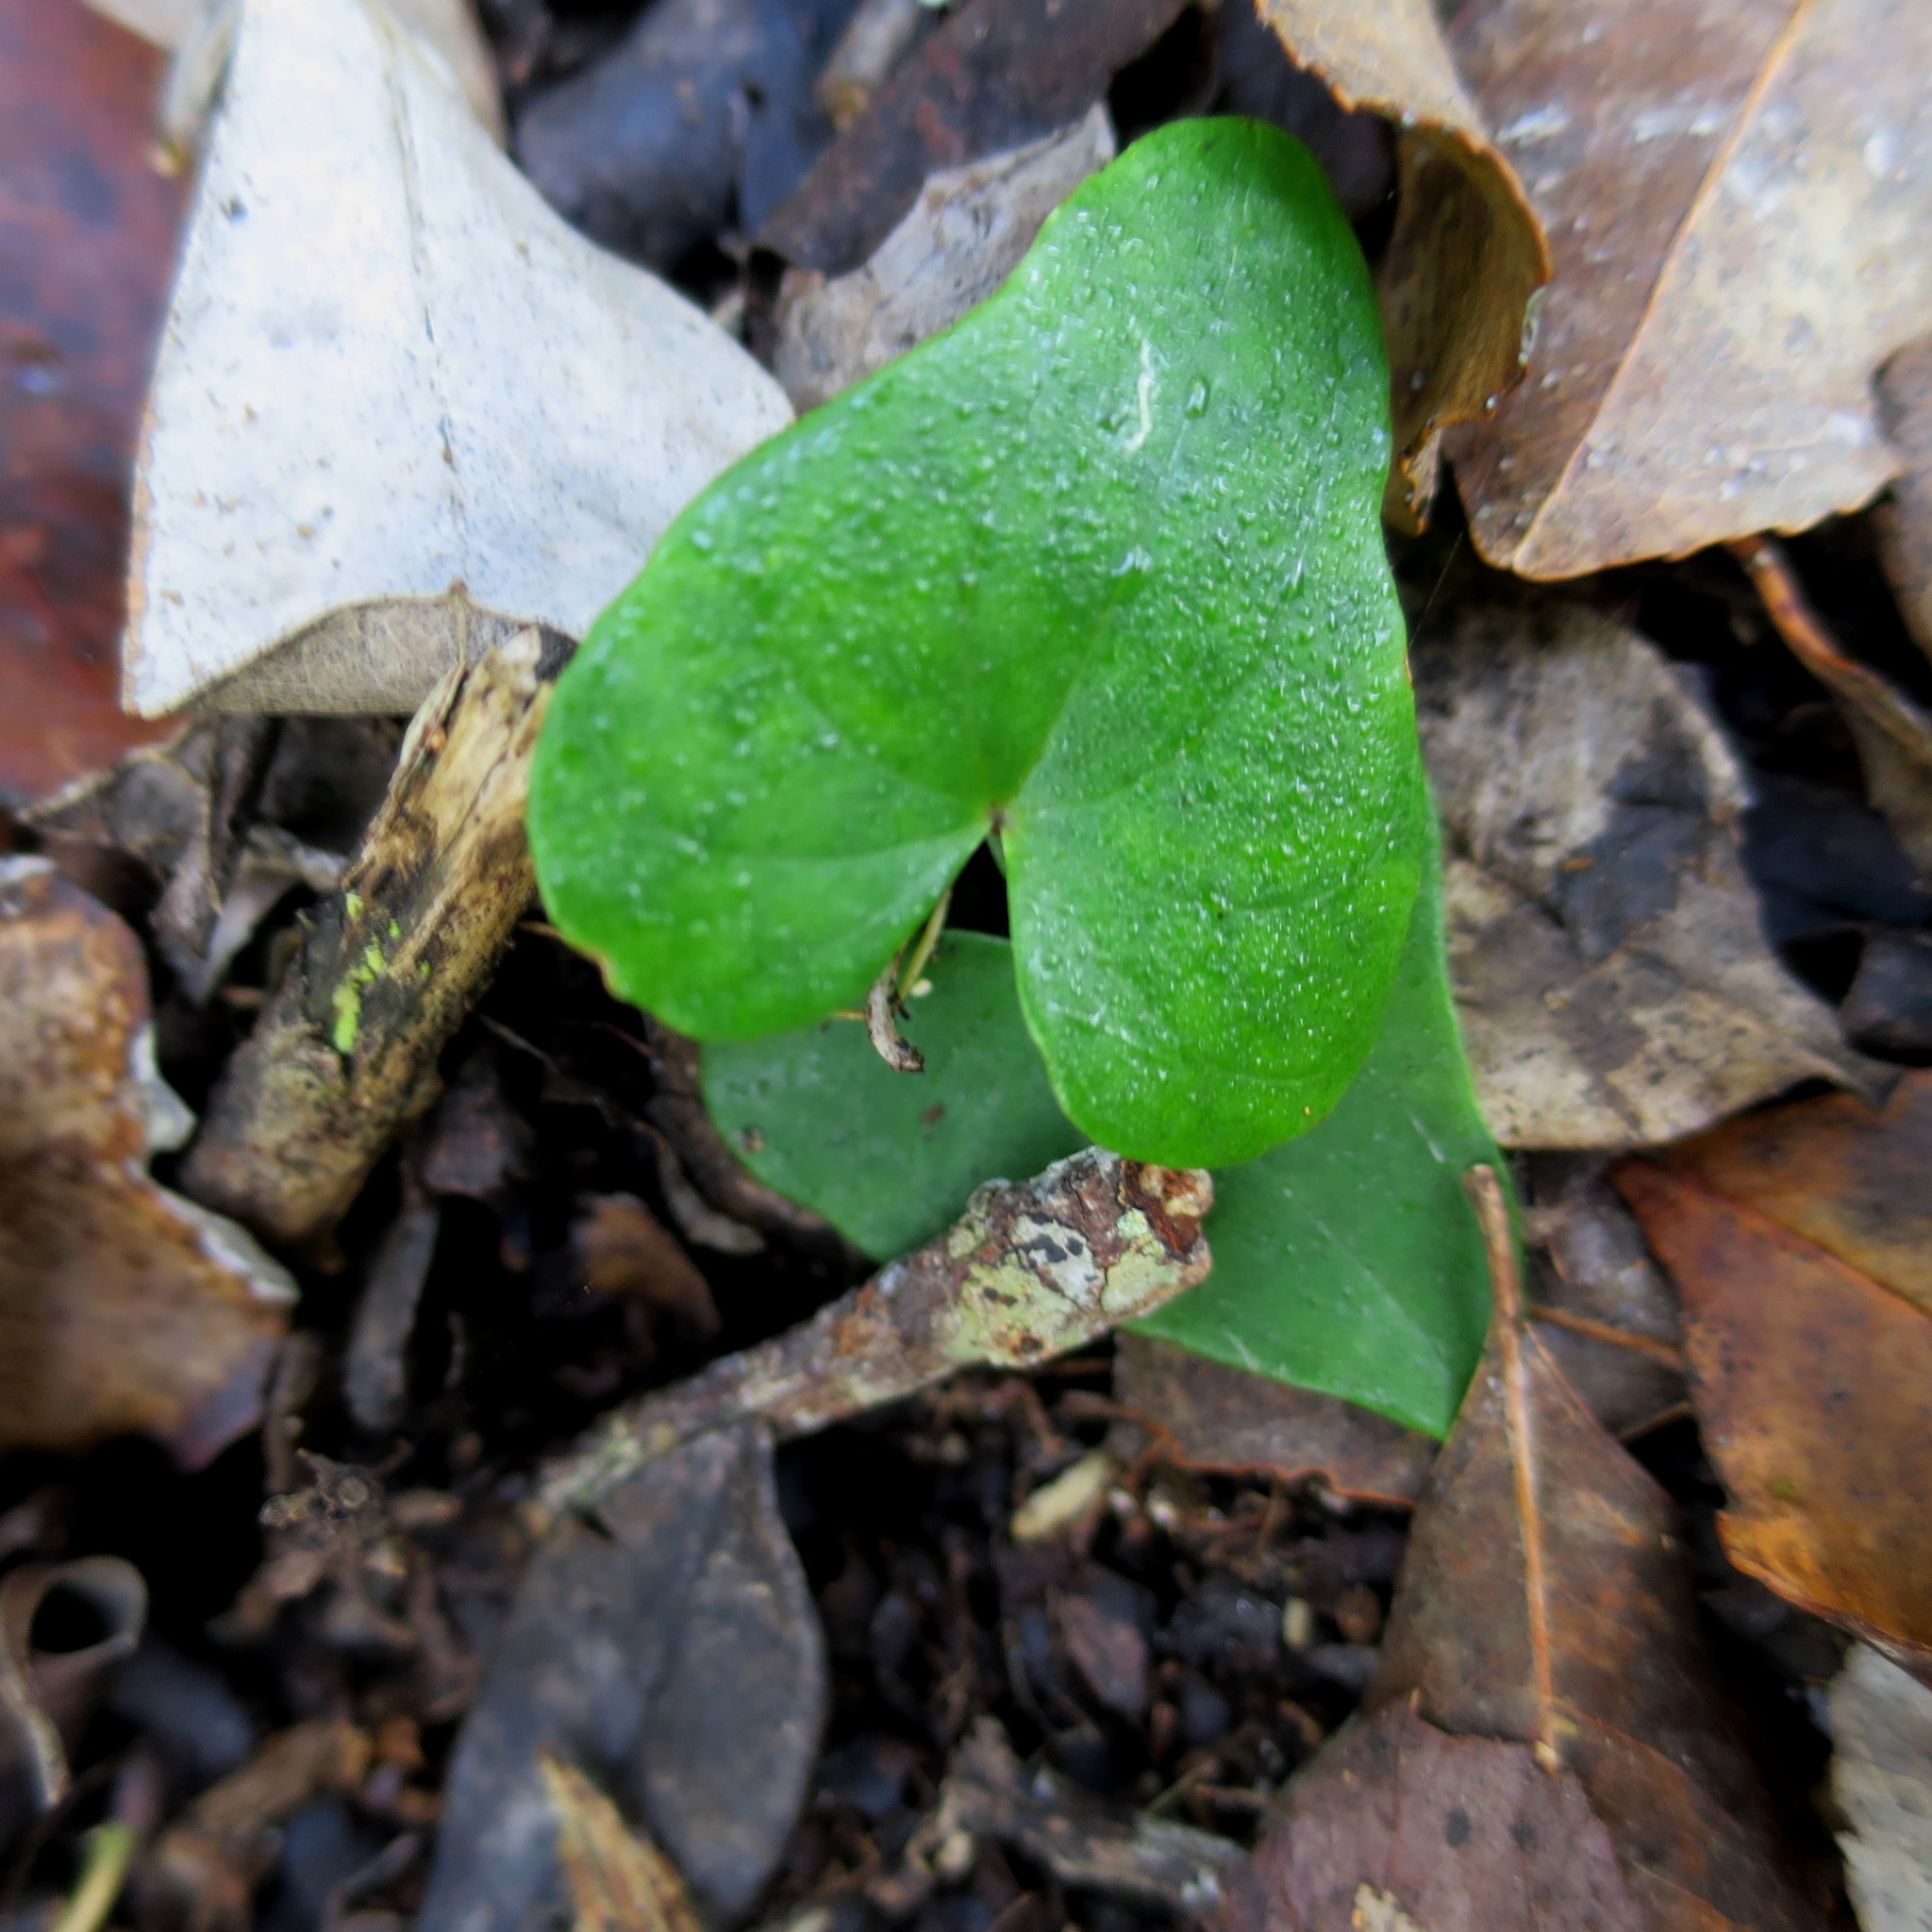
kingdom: Plantae
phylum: Tracheophyta
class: Liliopsida
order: Dioscoreales
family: Dioscoreaceae
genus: Dioscorea
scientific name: Dioscorea mundii
